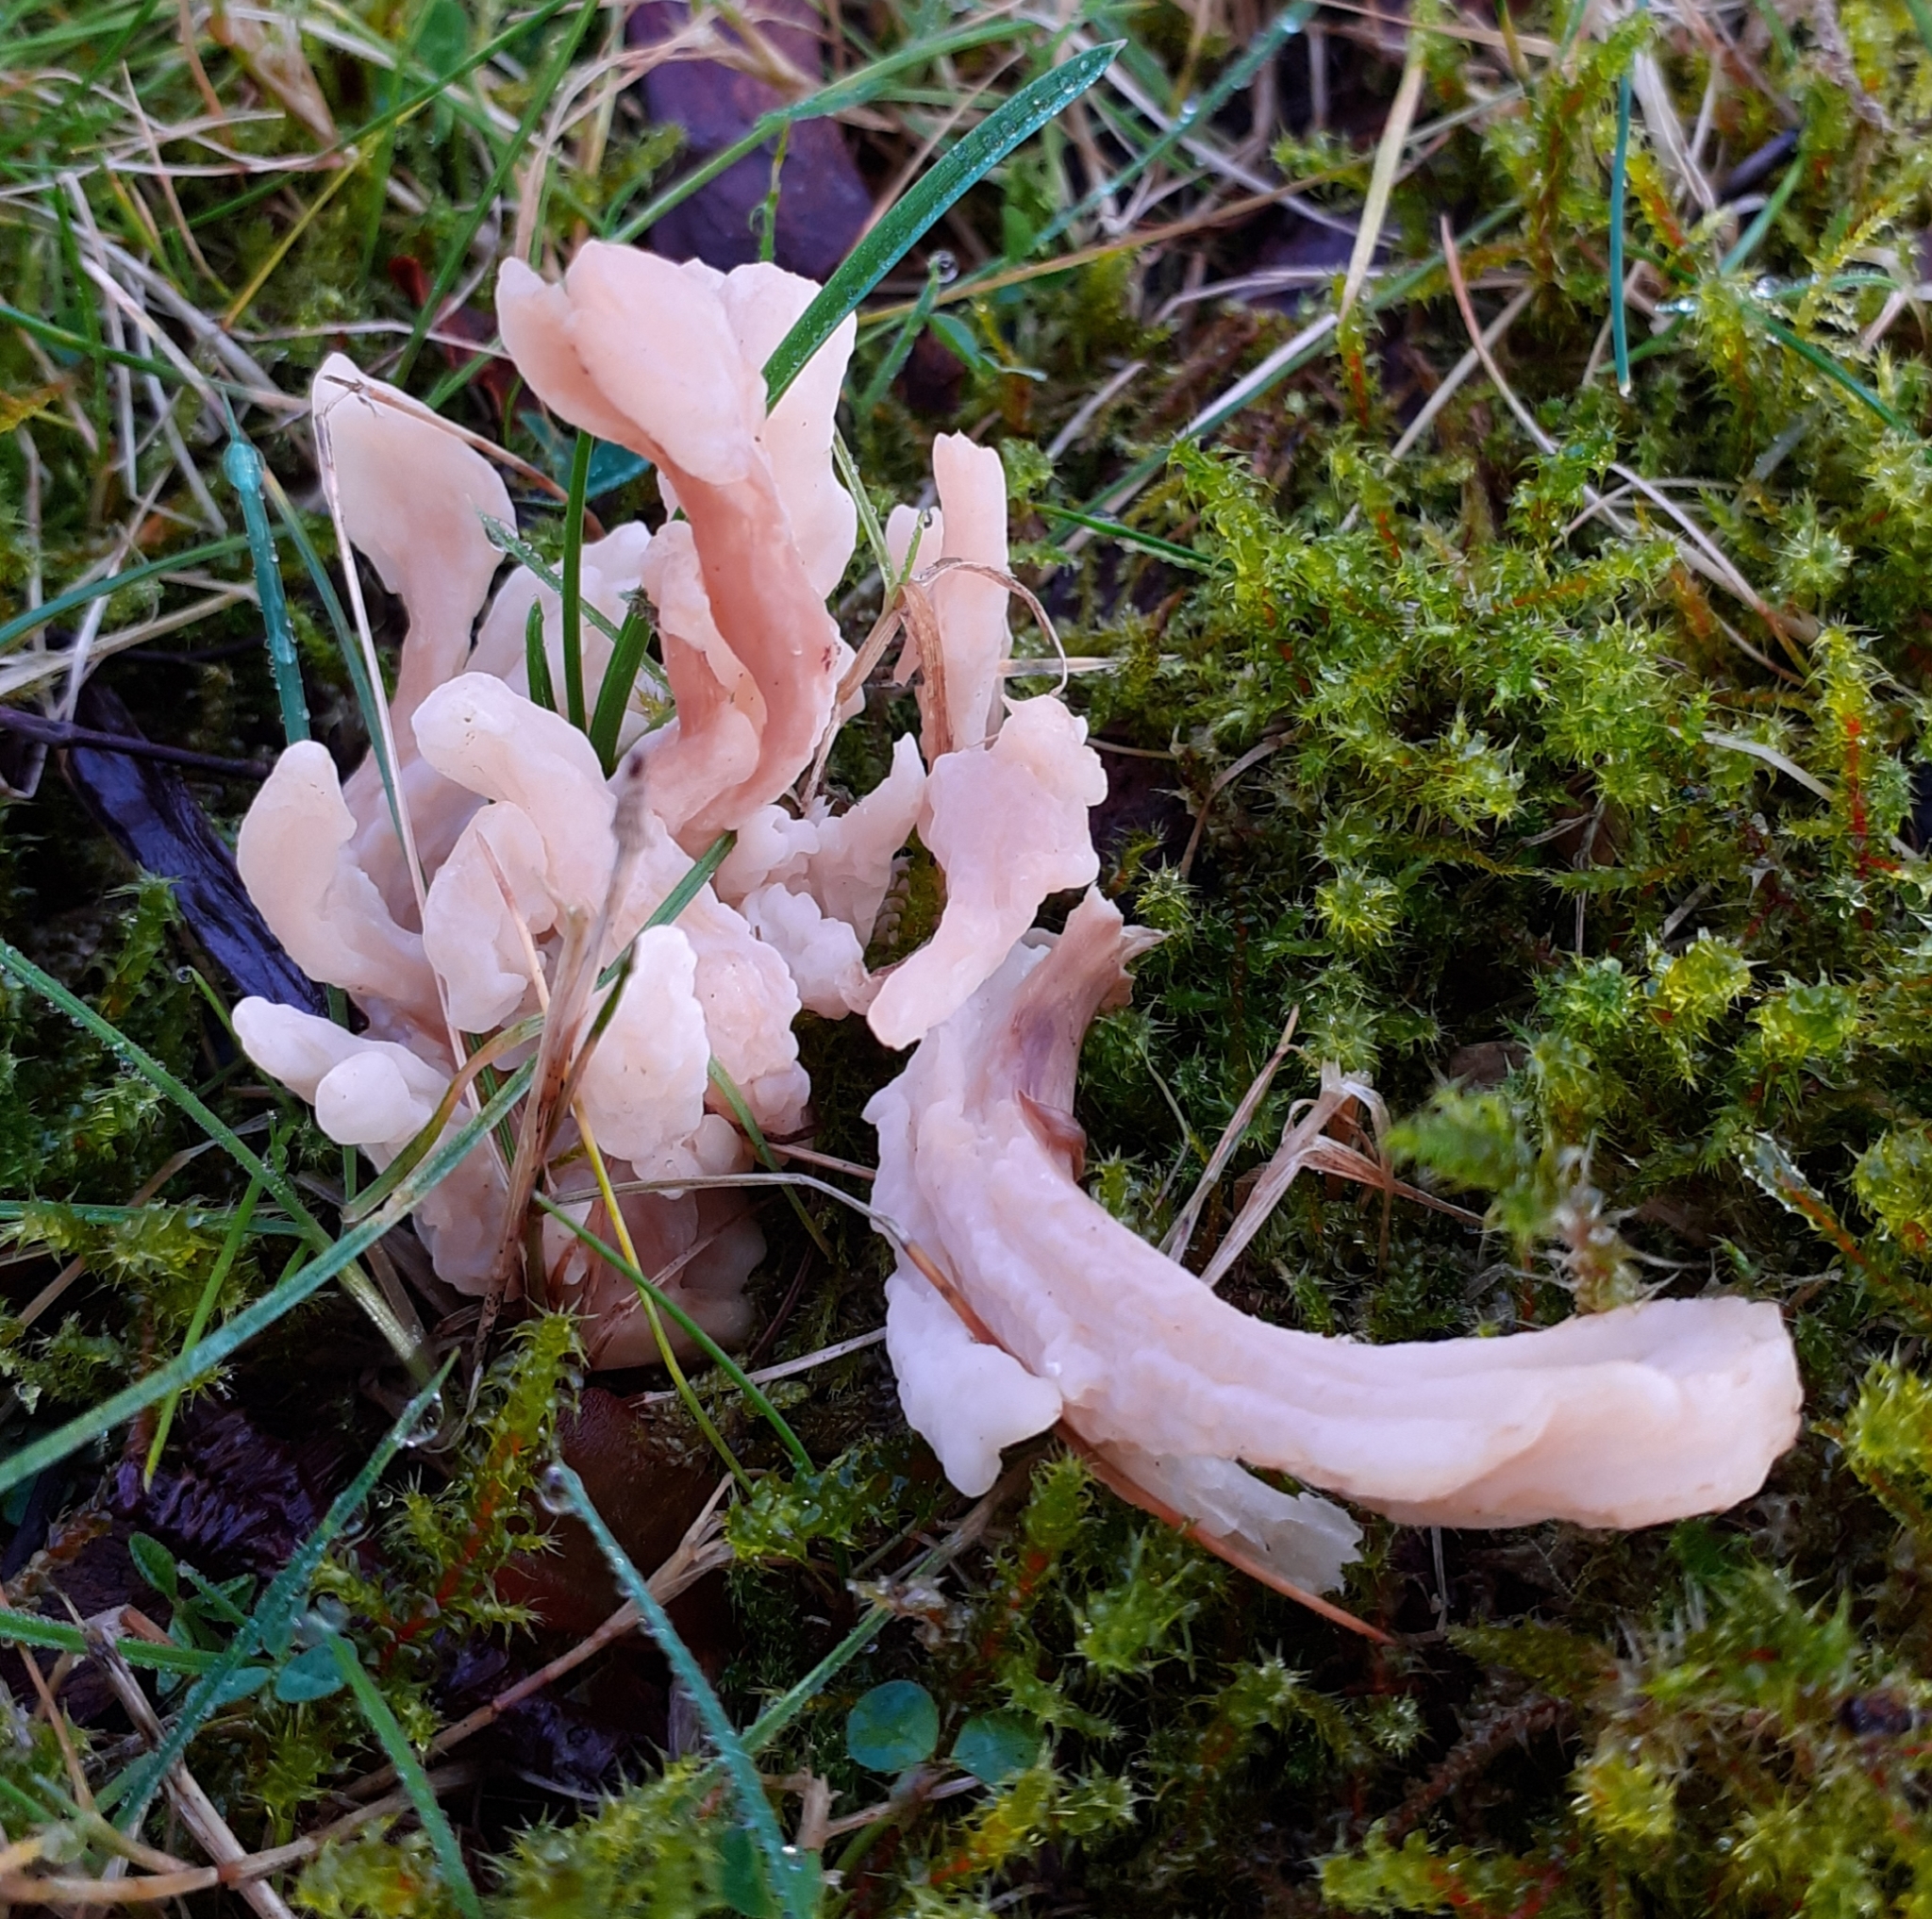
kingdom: Fungi
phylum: Basidiomycota
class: Agaricomycetes
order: Cantharellales
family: Hydnaceae
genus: Clavulina
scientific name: Clavulina rugosa
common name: Wrinkled club
